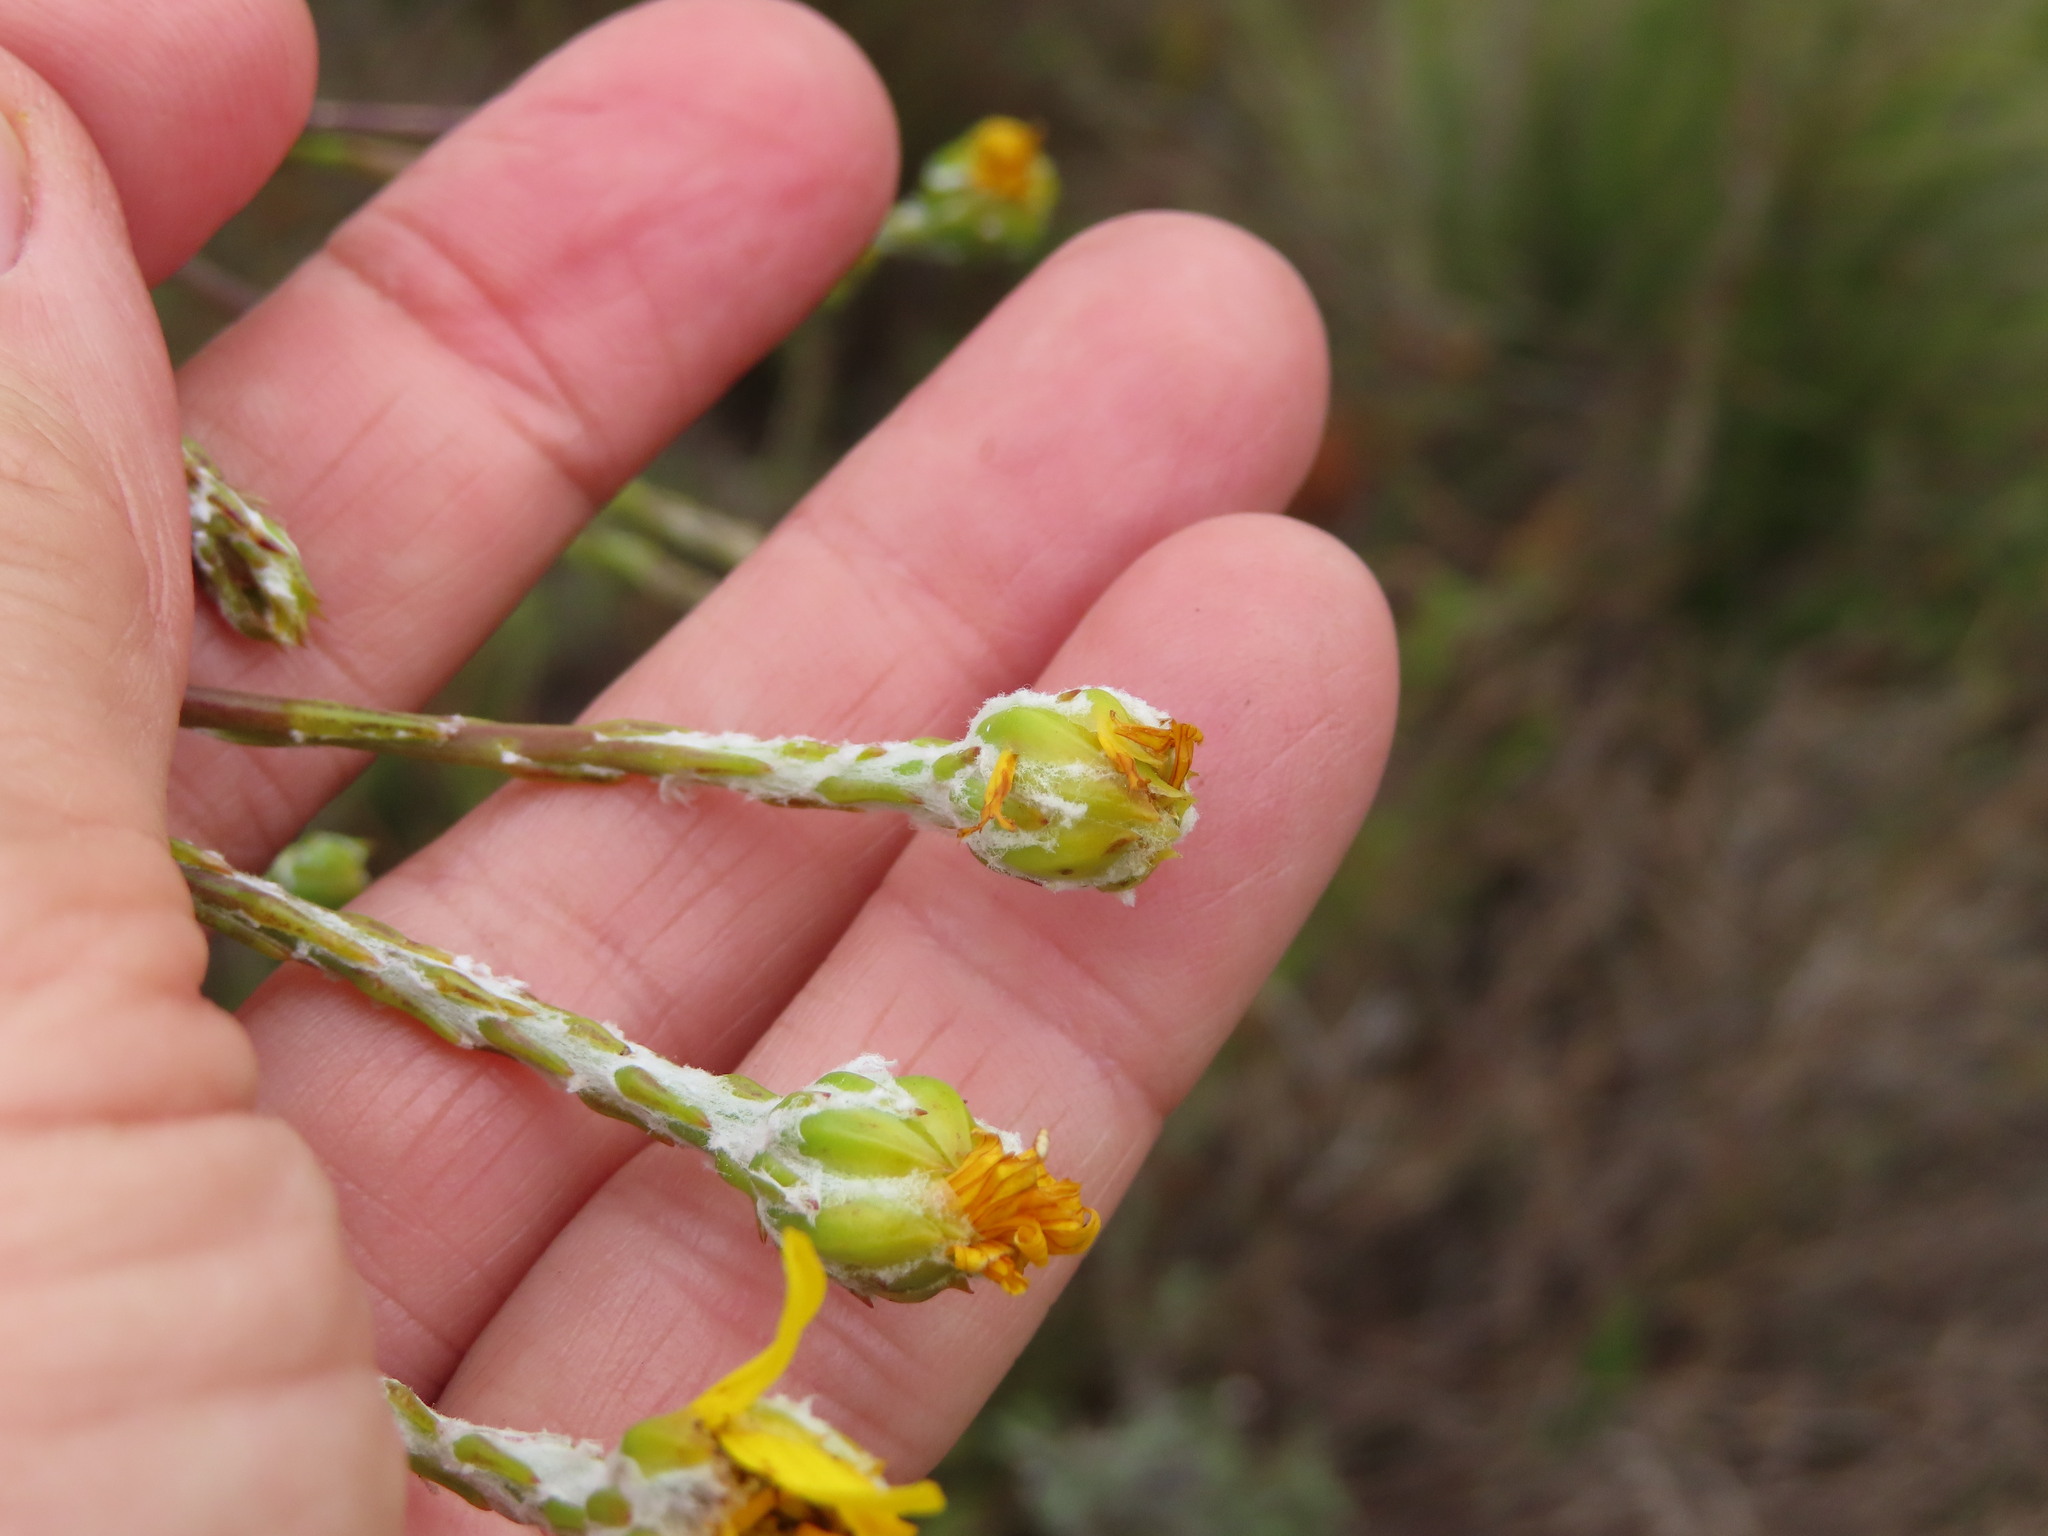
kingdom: Plantae
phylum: Tracheophyta
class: Magnoliopsida
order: Asterales
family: Asteraceae
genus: Osteospermum
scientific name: Osteospermum junceum
